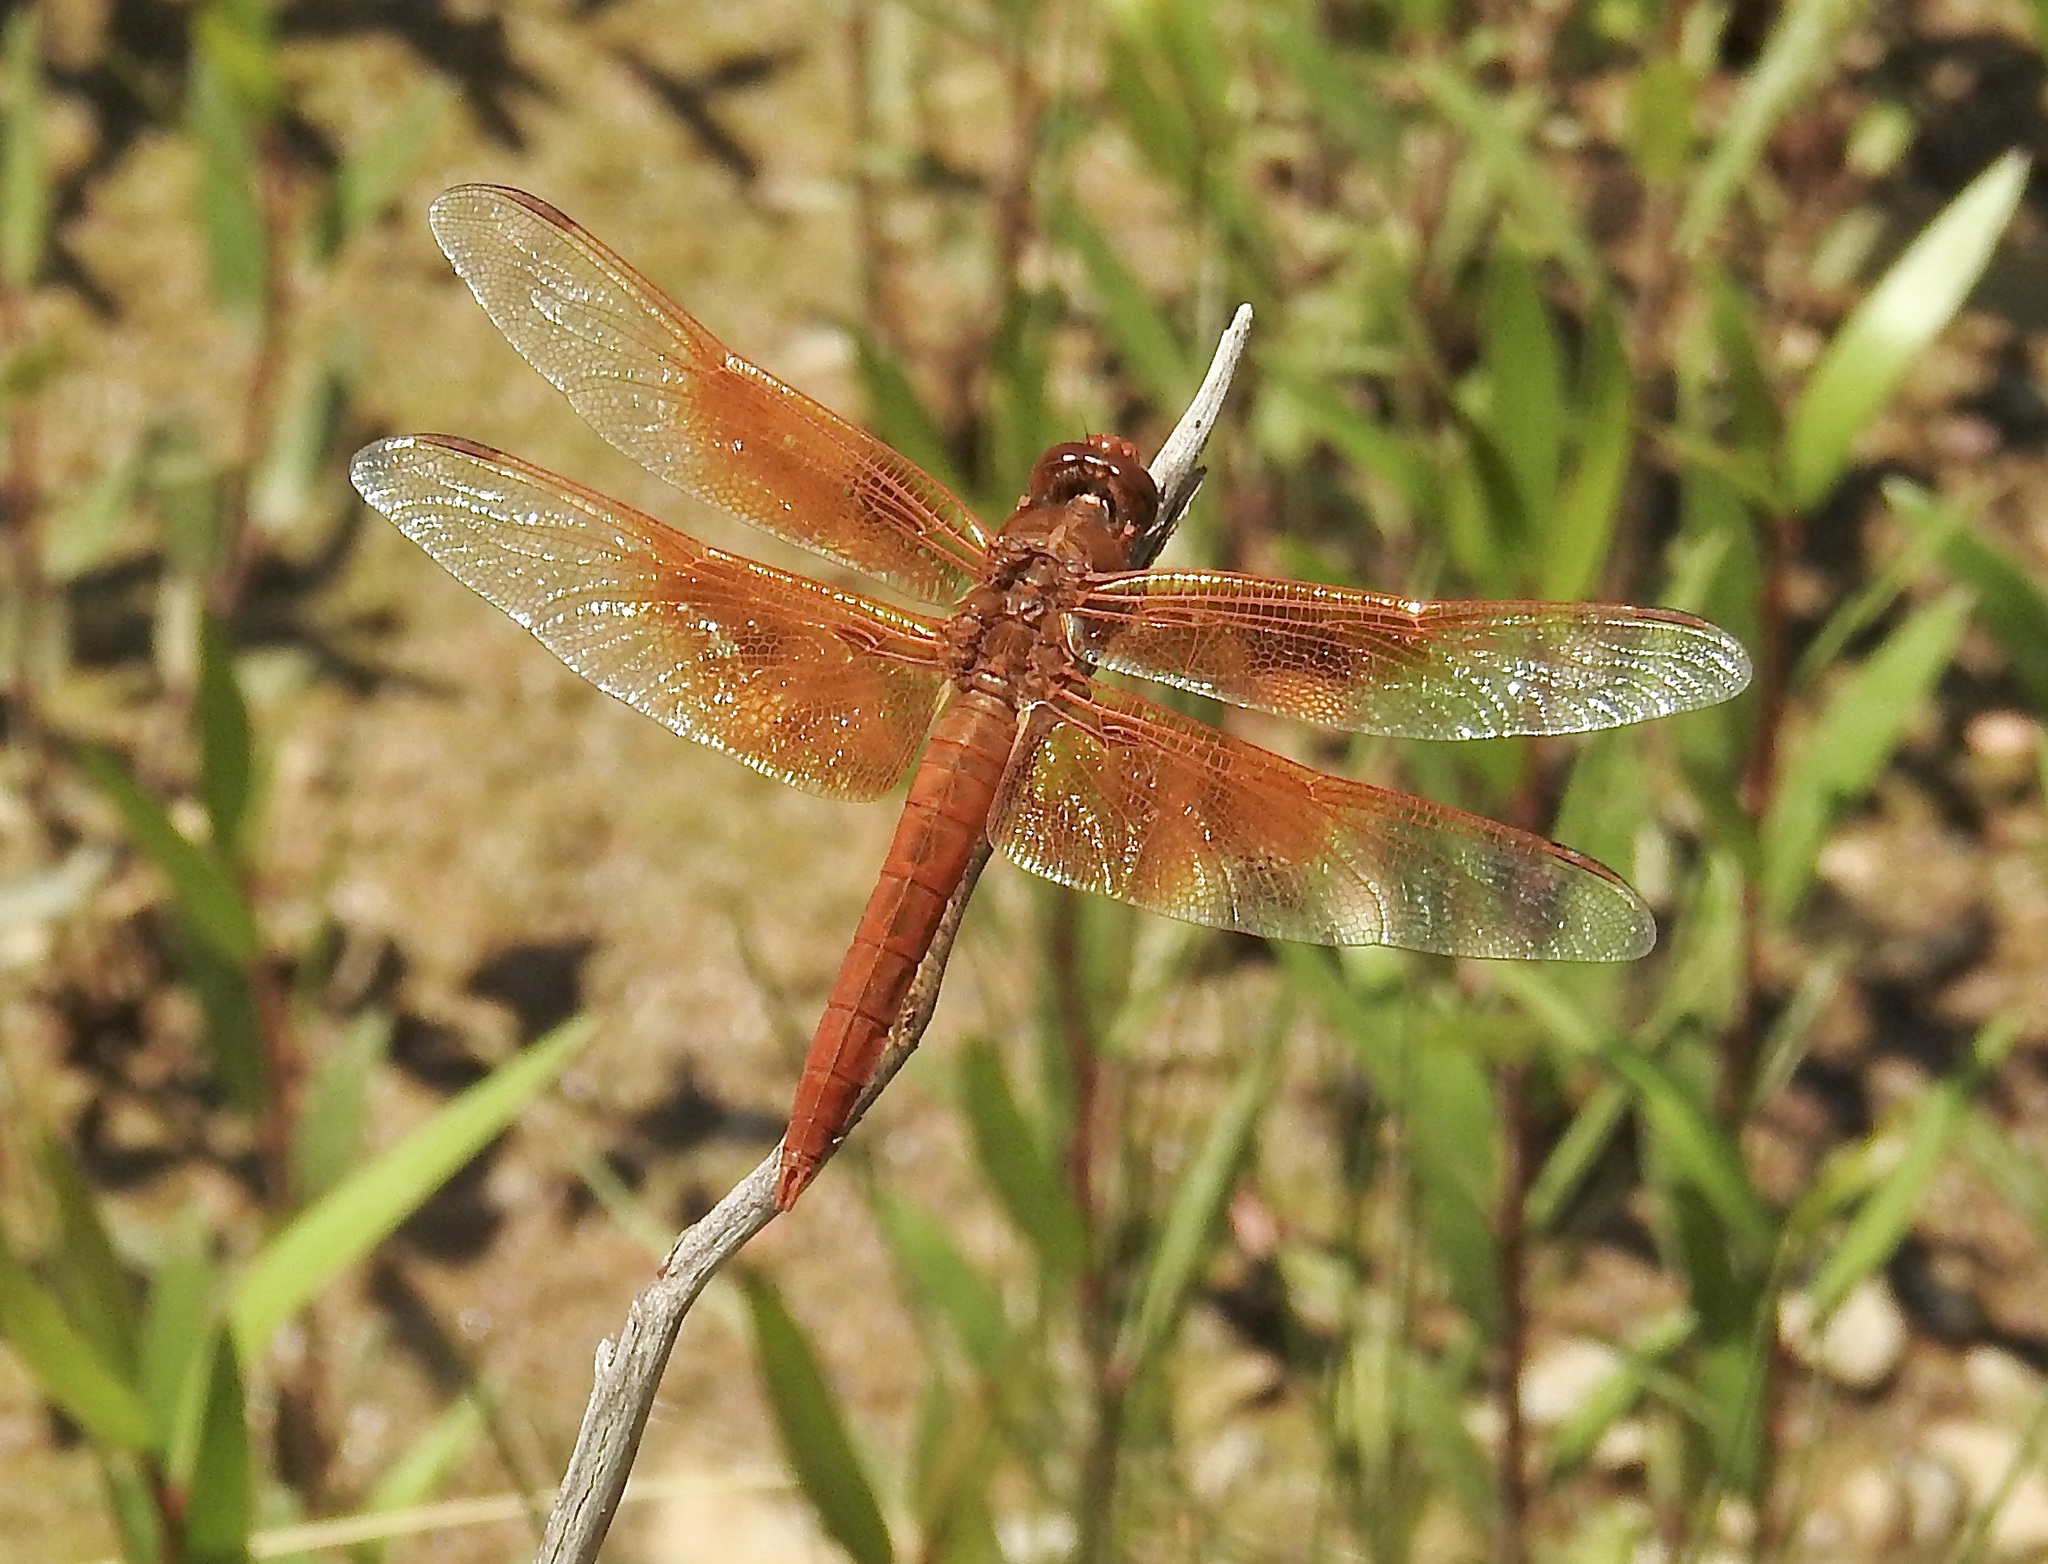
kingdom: Animalia
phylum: Arthropoda
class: Insecta
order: Odonata
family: Libellulidae
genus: Libellula
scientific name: Libellula saturata
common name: Flame skimmer
